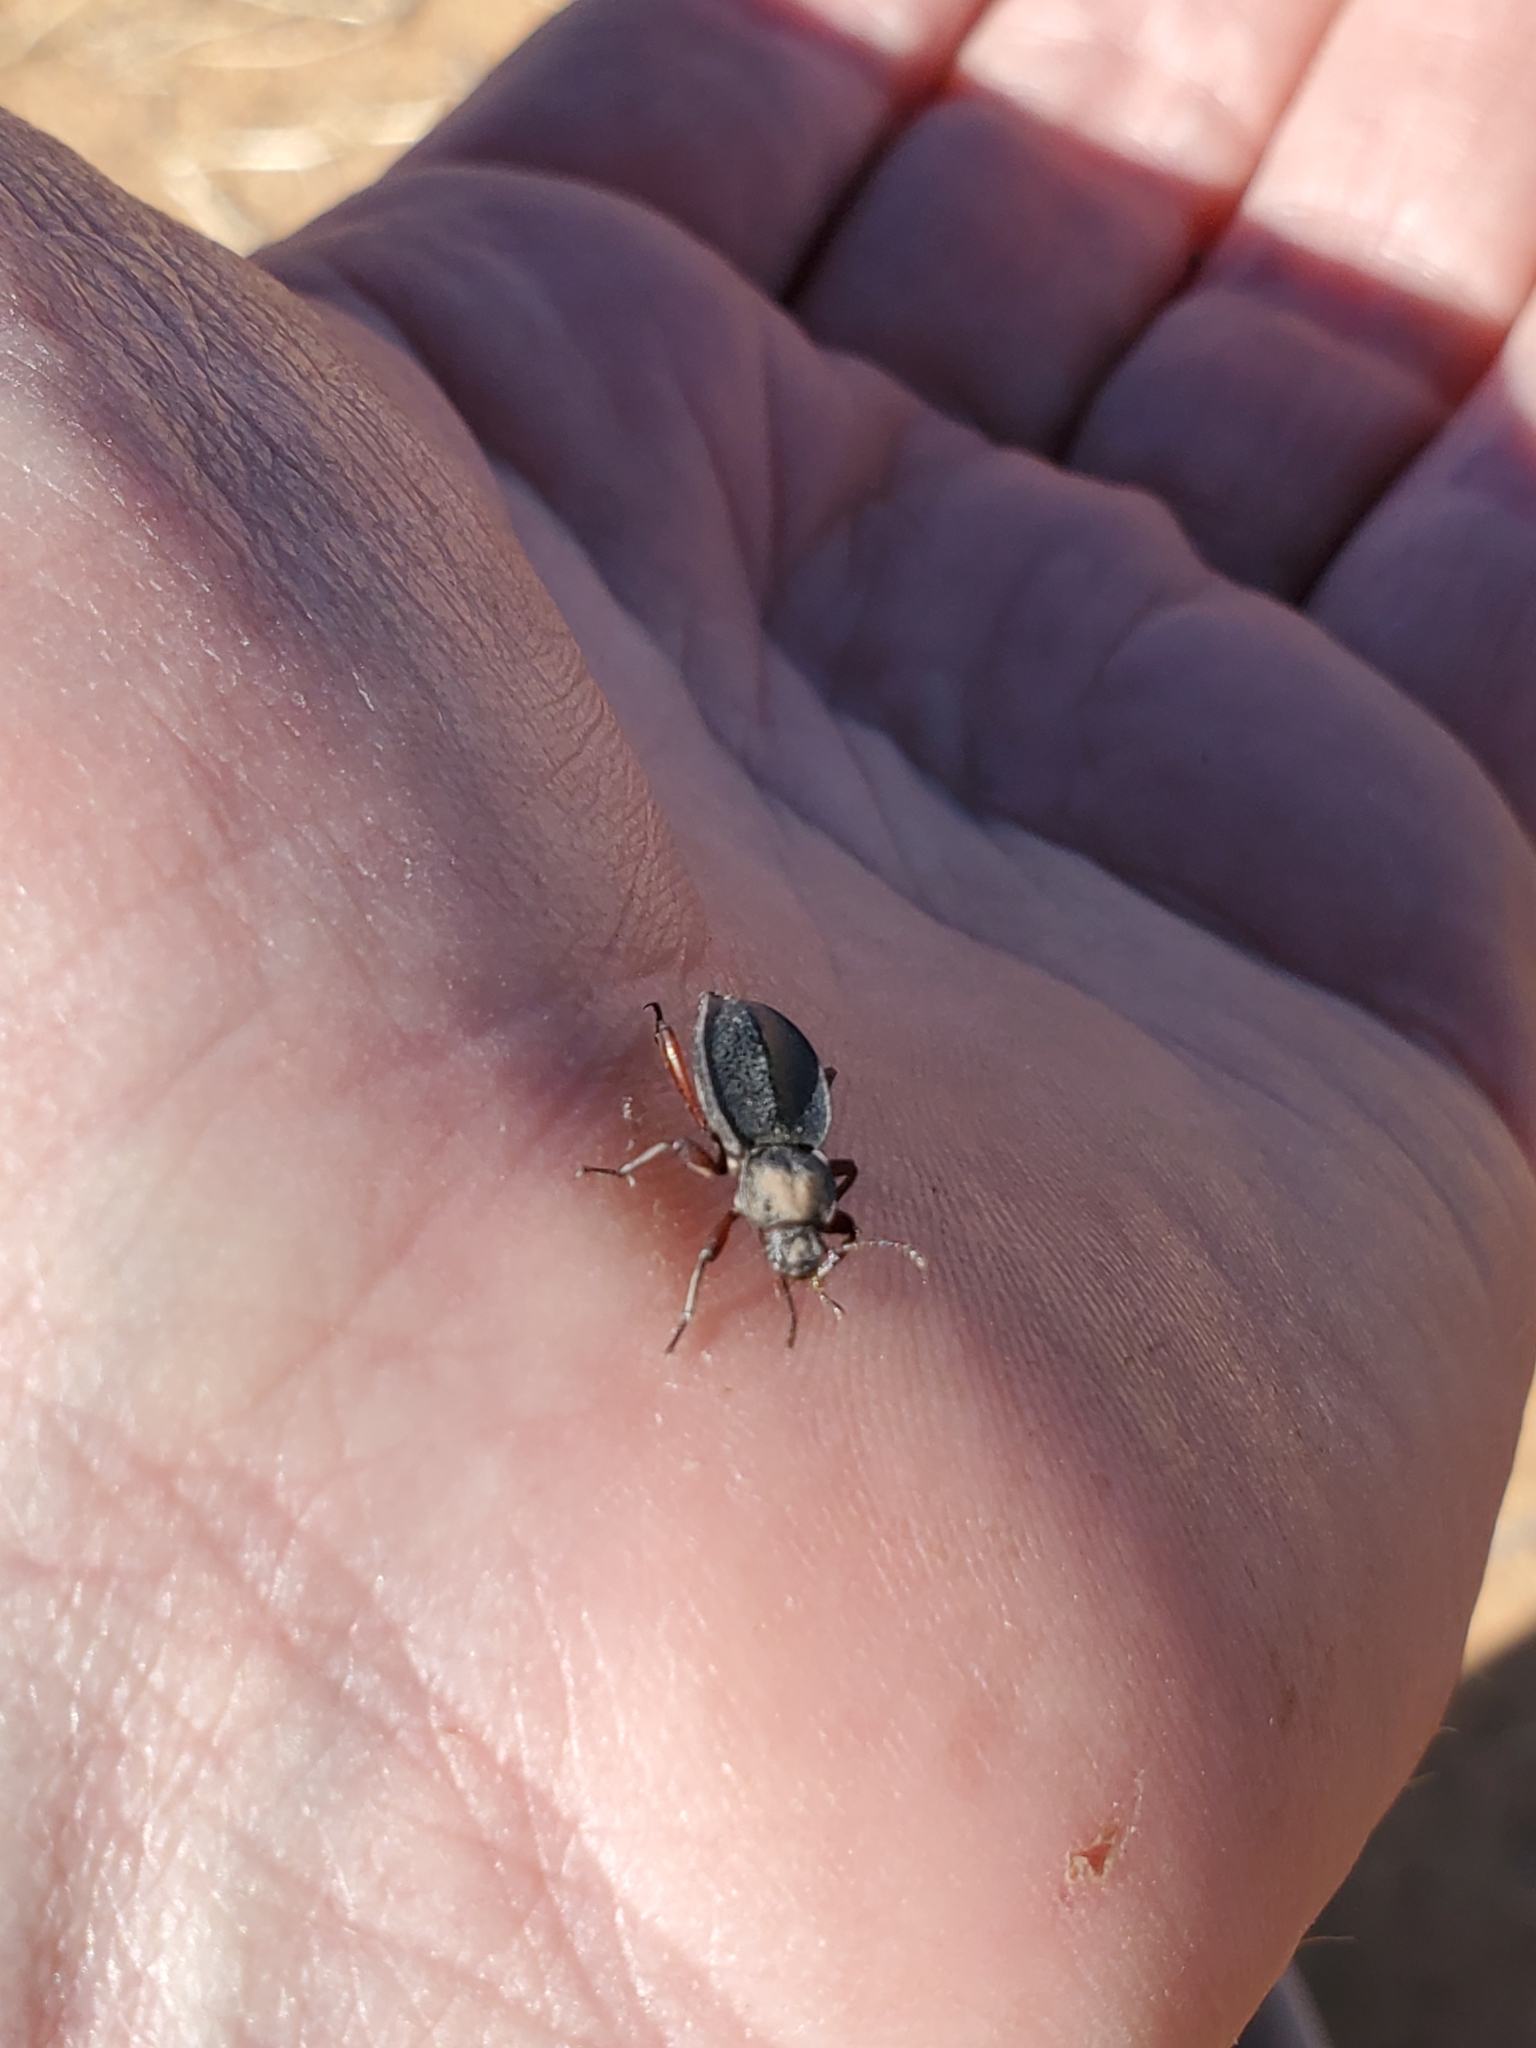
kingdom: Animalia
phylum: Arthropoda
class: Insecta
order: Coleoptera
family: Tenebrionidae
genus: Embaphion
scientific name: Embaphion depressum
